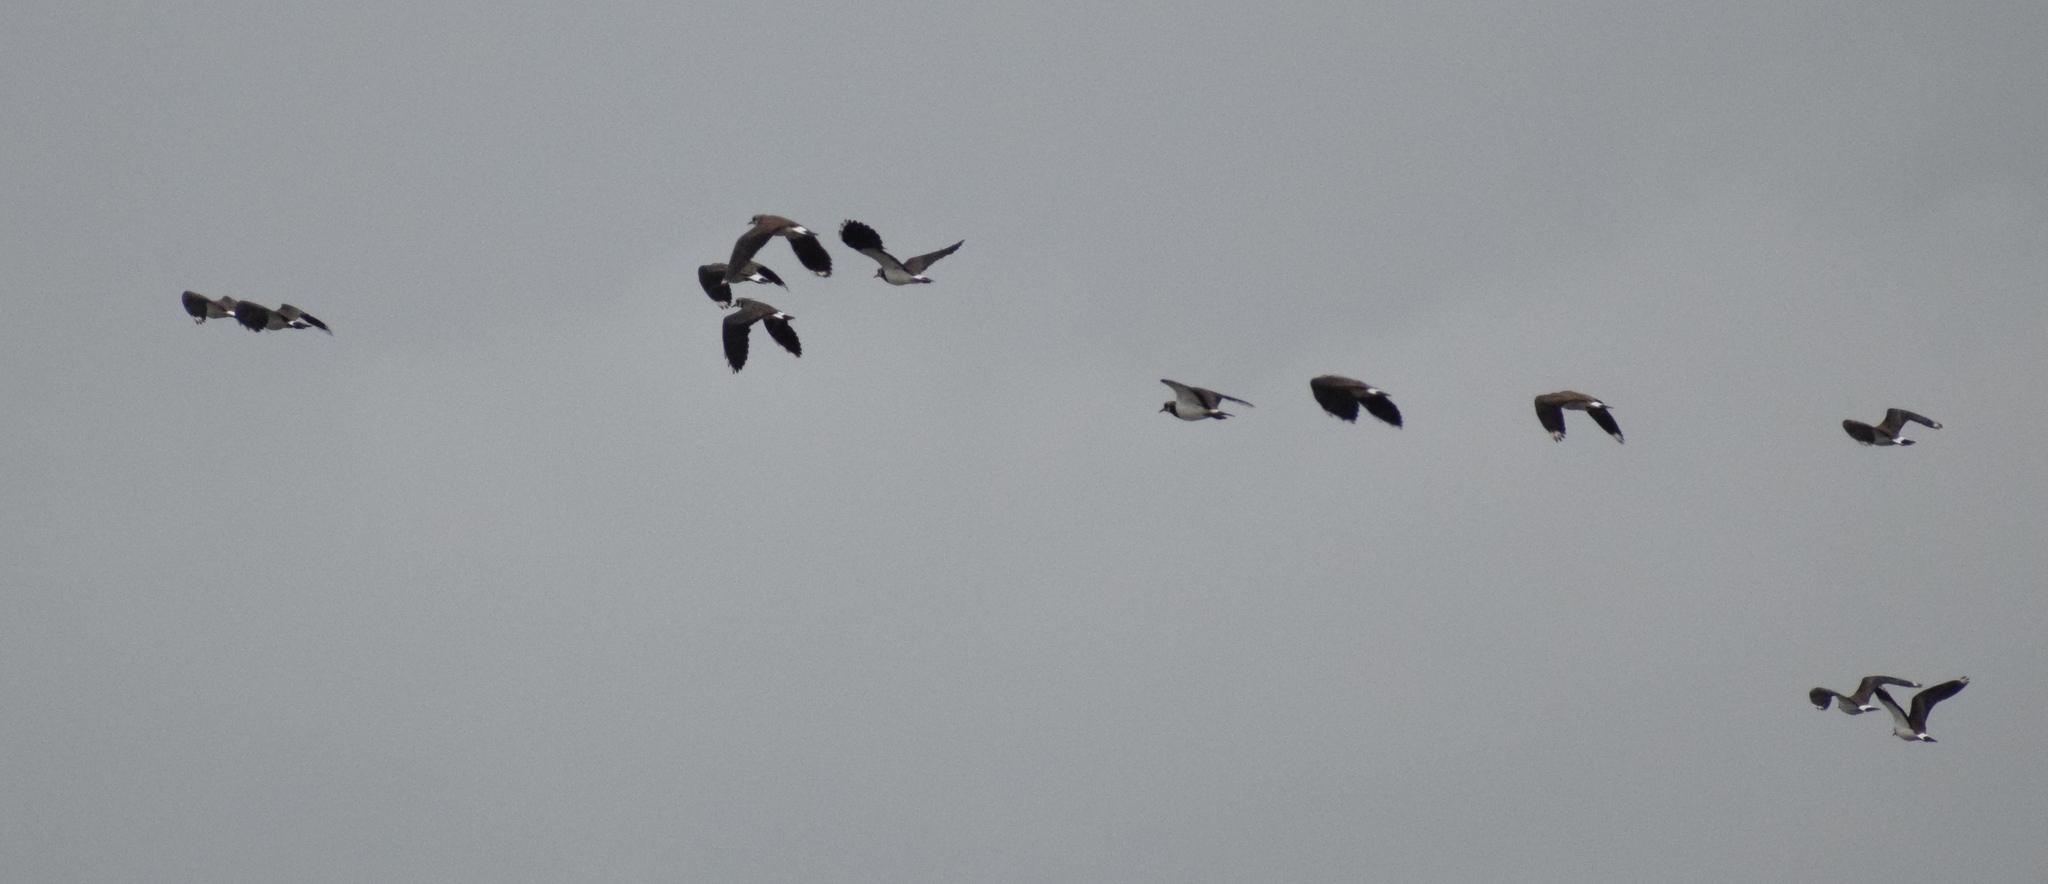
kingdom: Animalia
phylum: Chordata
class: Aves
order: Charadriiformes
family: Charadriidae
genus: Vanellus
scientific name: Vanellus vanellus
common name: Northern lapwing
